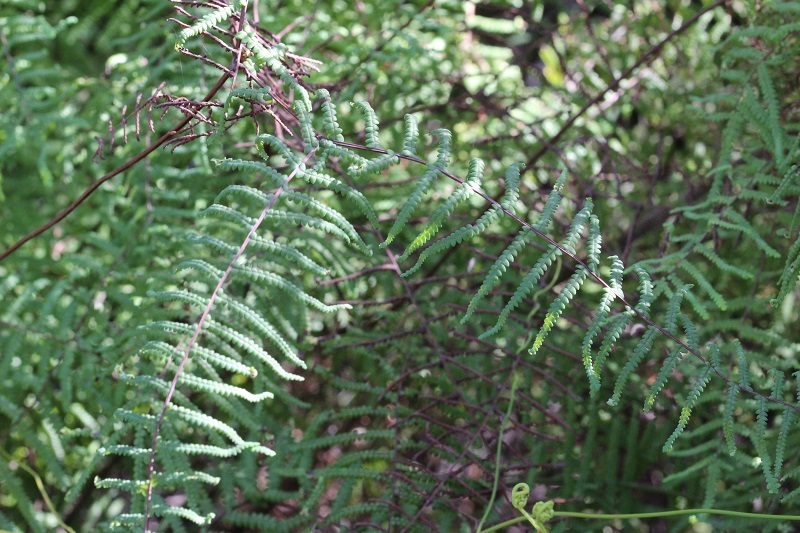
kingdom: Plantae
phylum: Tracheophyta
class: Polypodiopsida
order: Gleicheniales
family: Gleicheniaceae
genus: Gleichenia
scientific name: Gleichenia polypodioides
